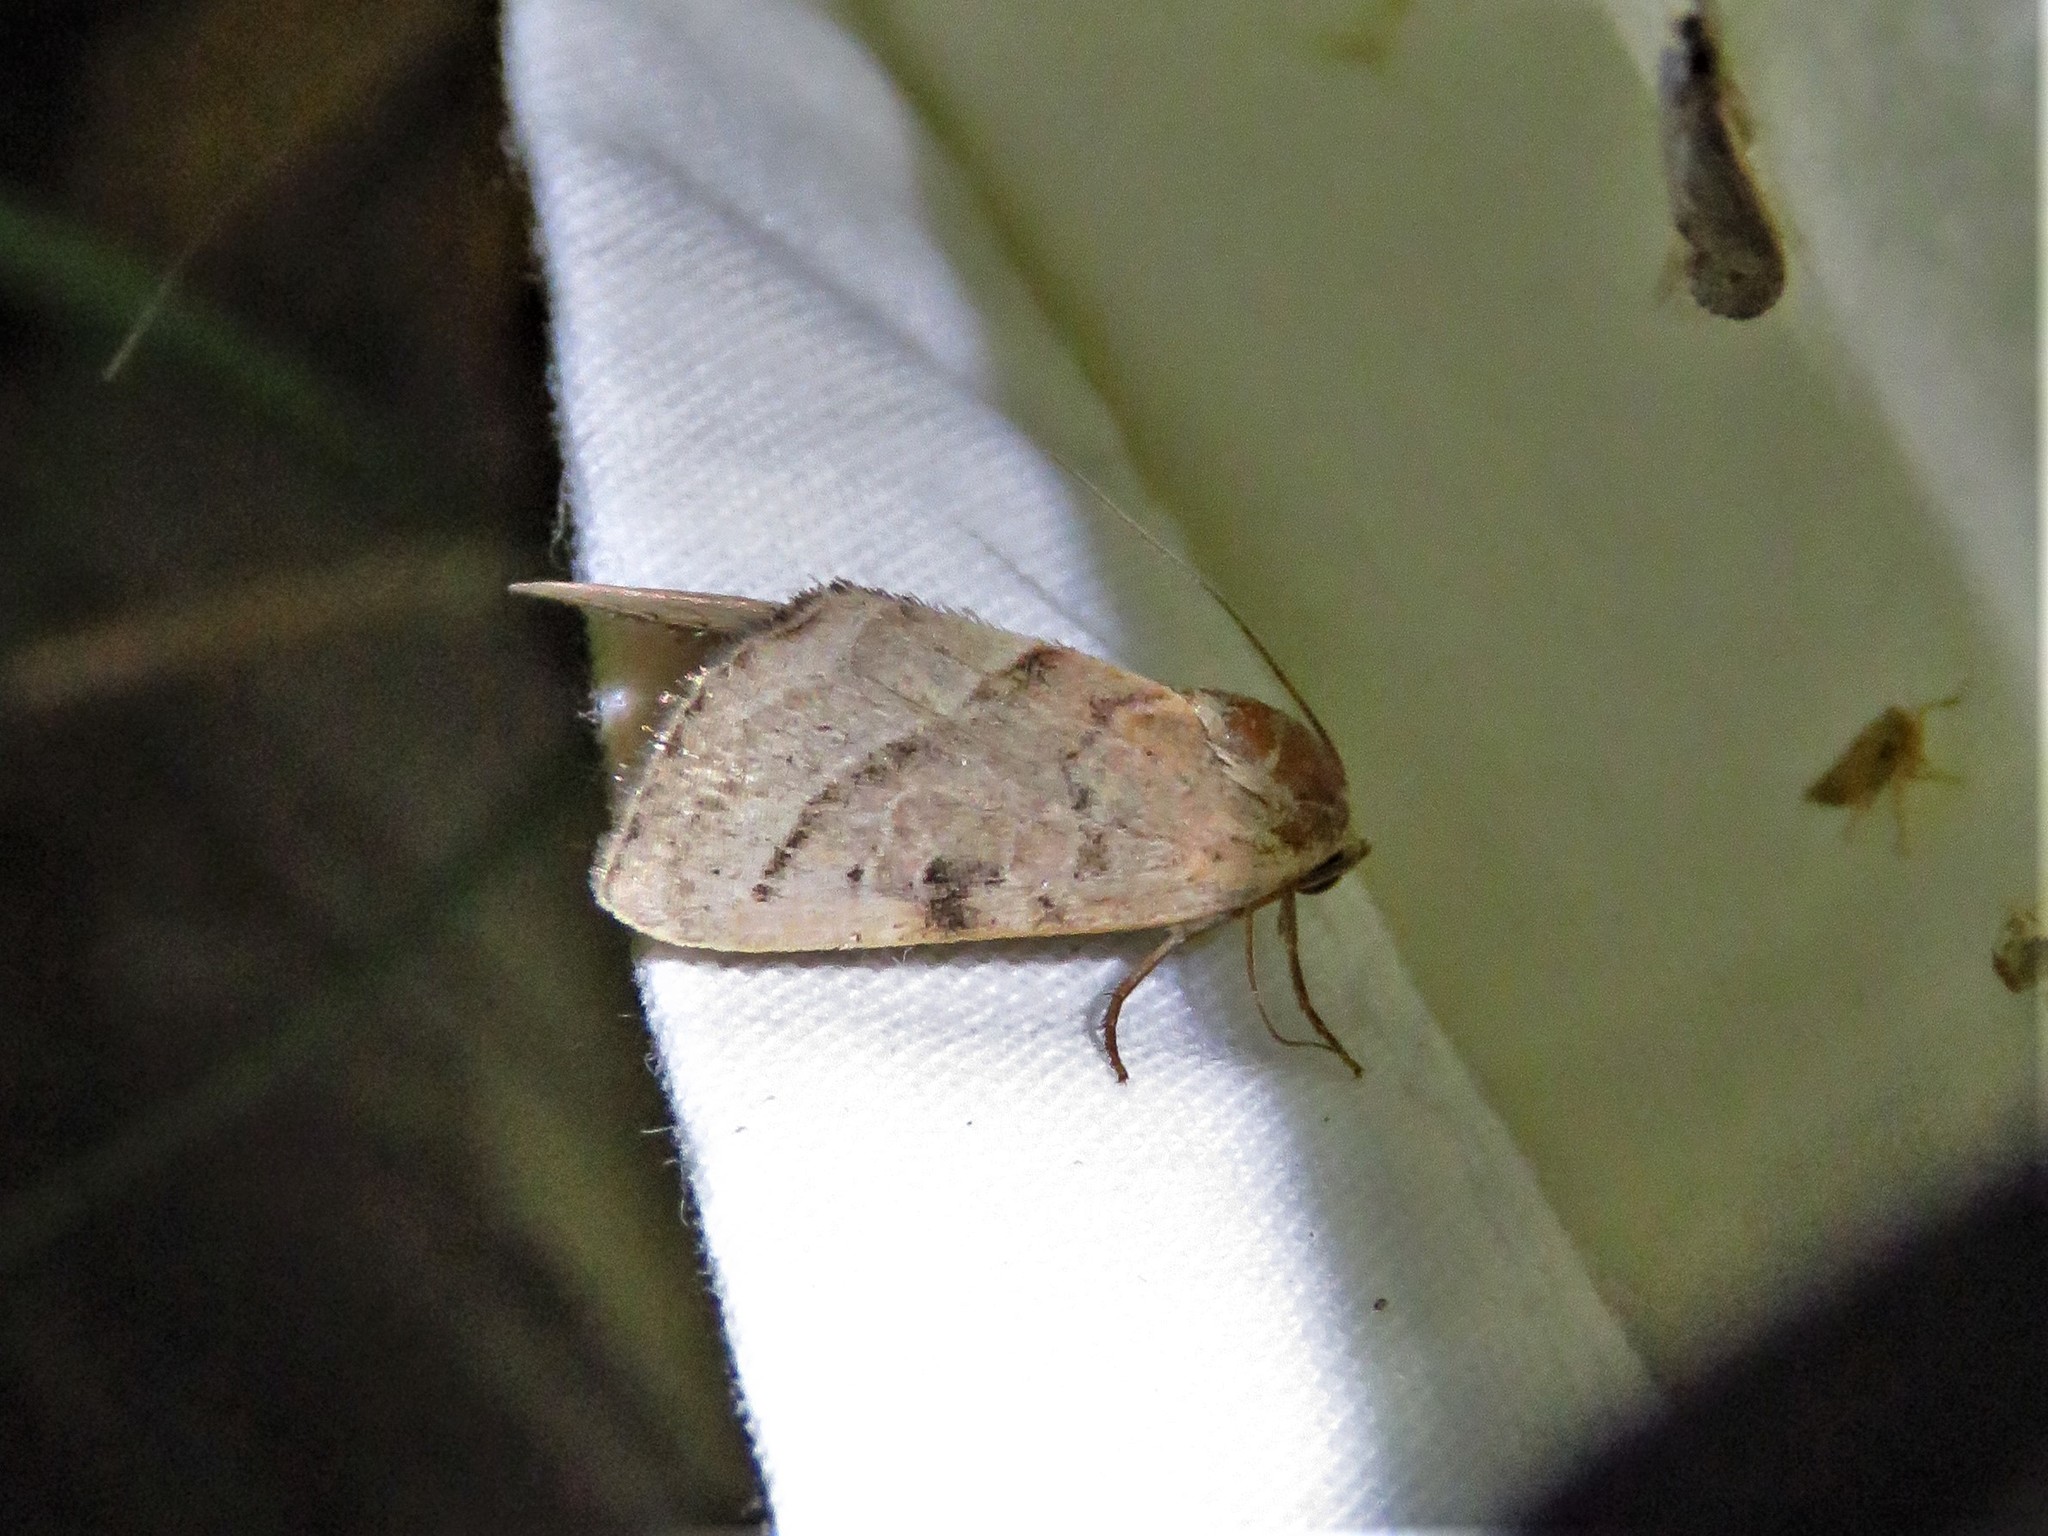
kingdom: Animalia
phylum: Arthropoda
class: Insecta
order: Lepidoptera
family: Noctuidae
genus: Galgula
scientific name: Galgula partita
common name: Wedgeling
